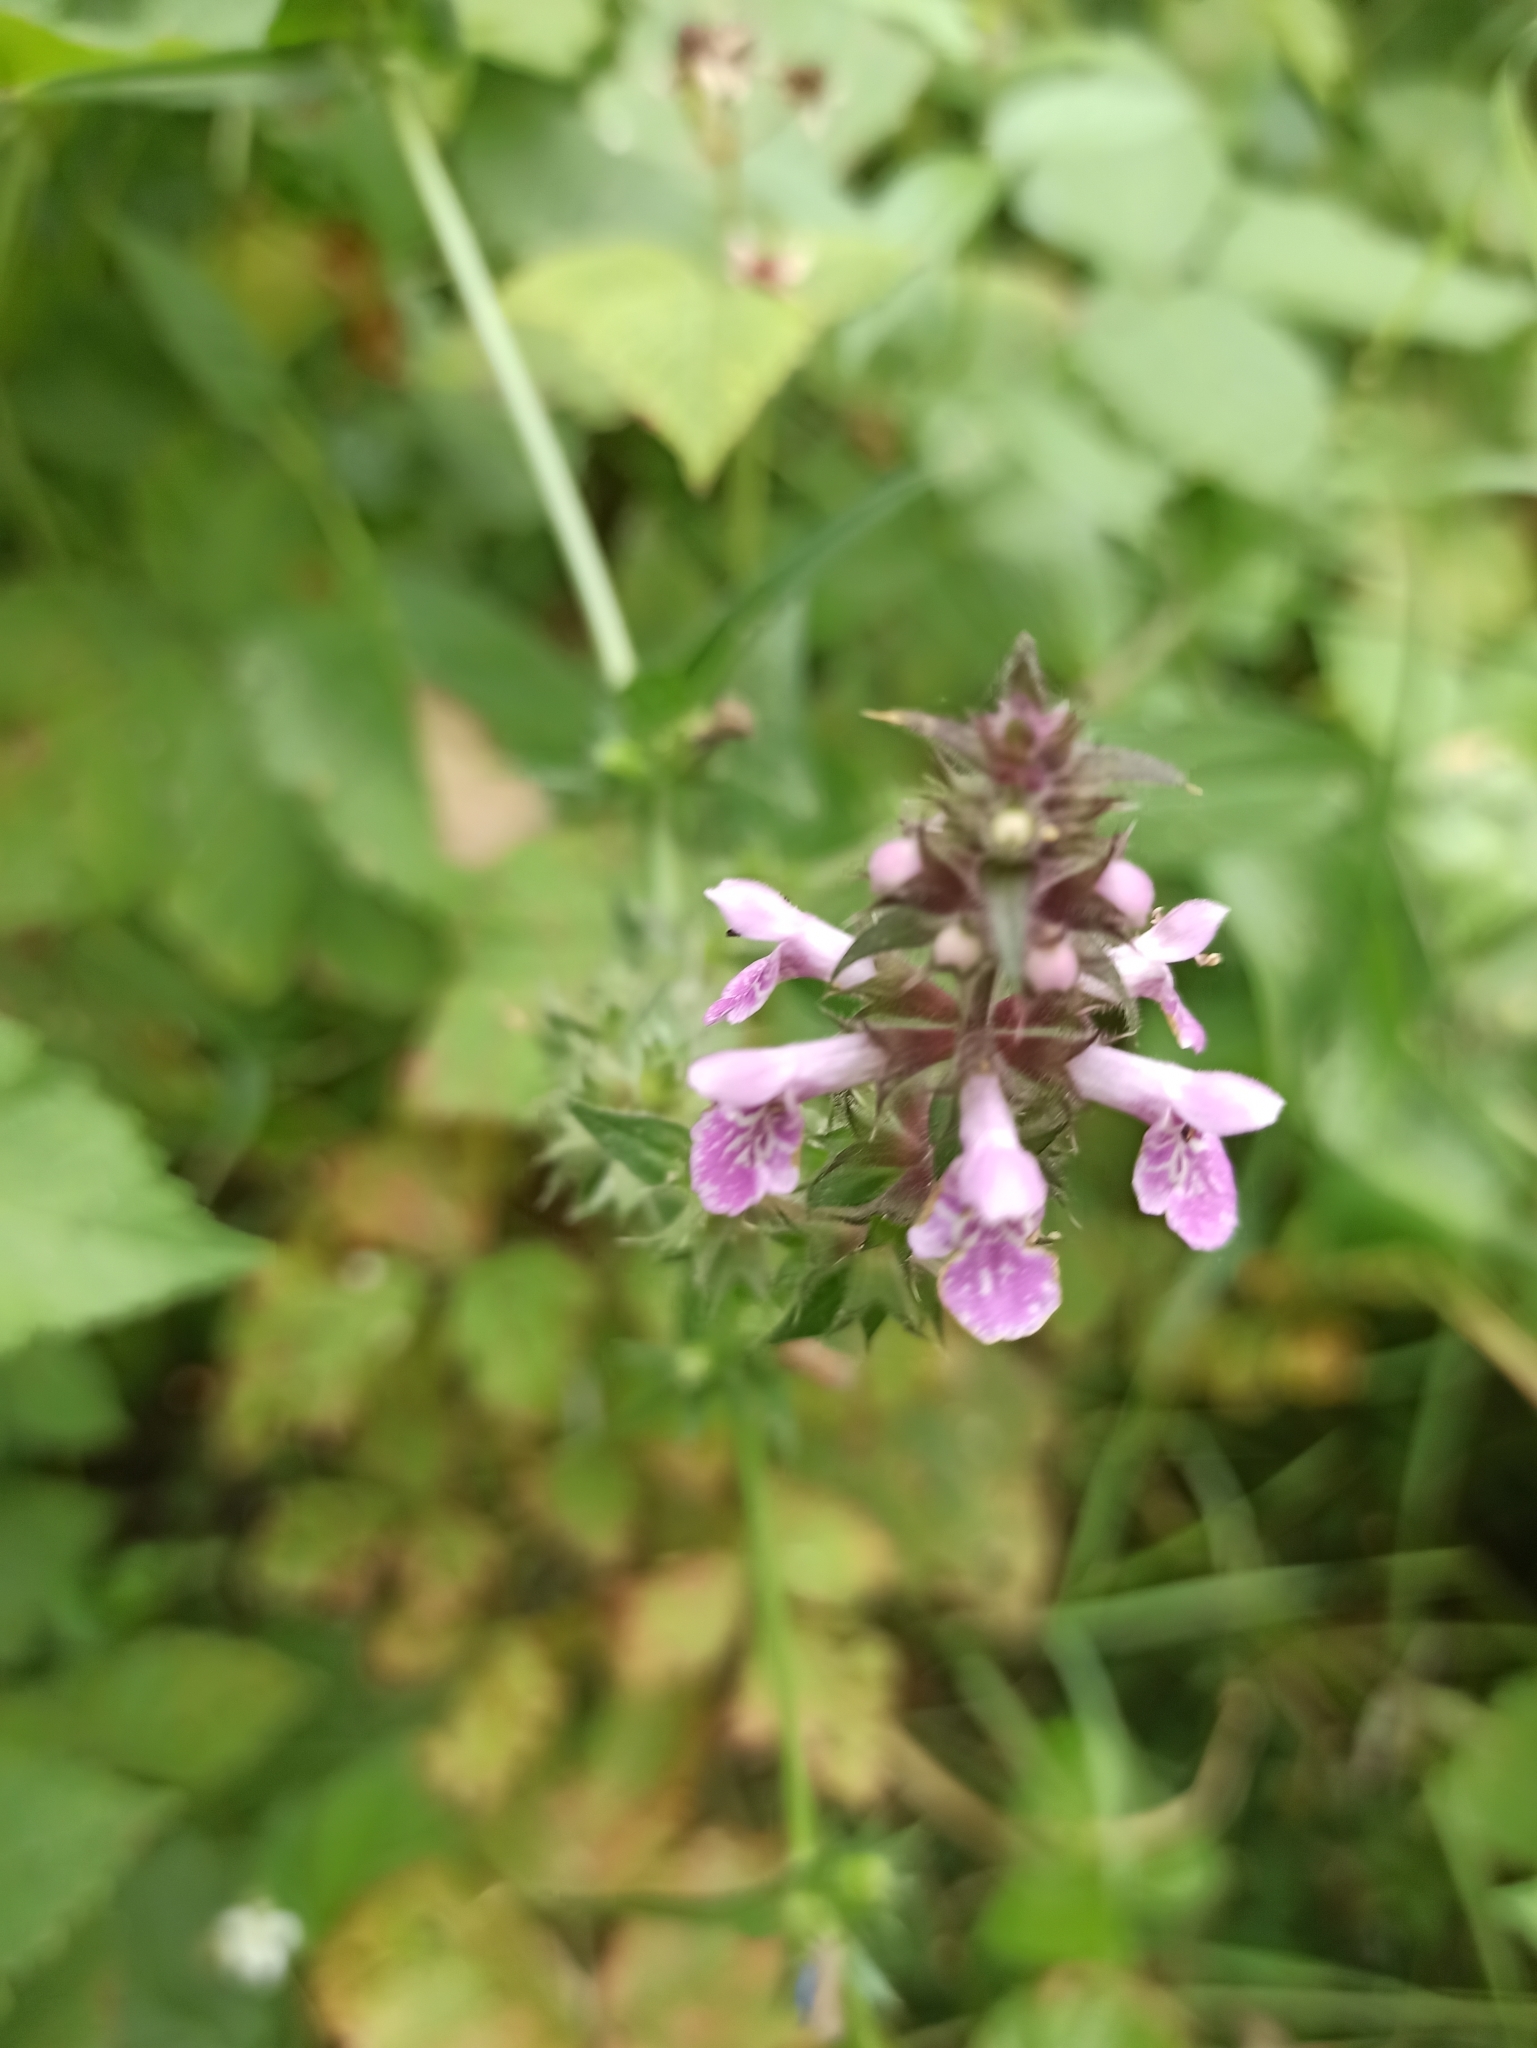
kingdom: Plantae
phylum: Tracheophyta
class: Magnoliopsida
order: Lamiales
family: Lamiaceae
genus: Stachys
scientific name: Stachys palustris
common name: Marsh woundwort
